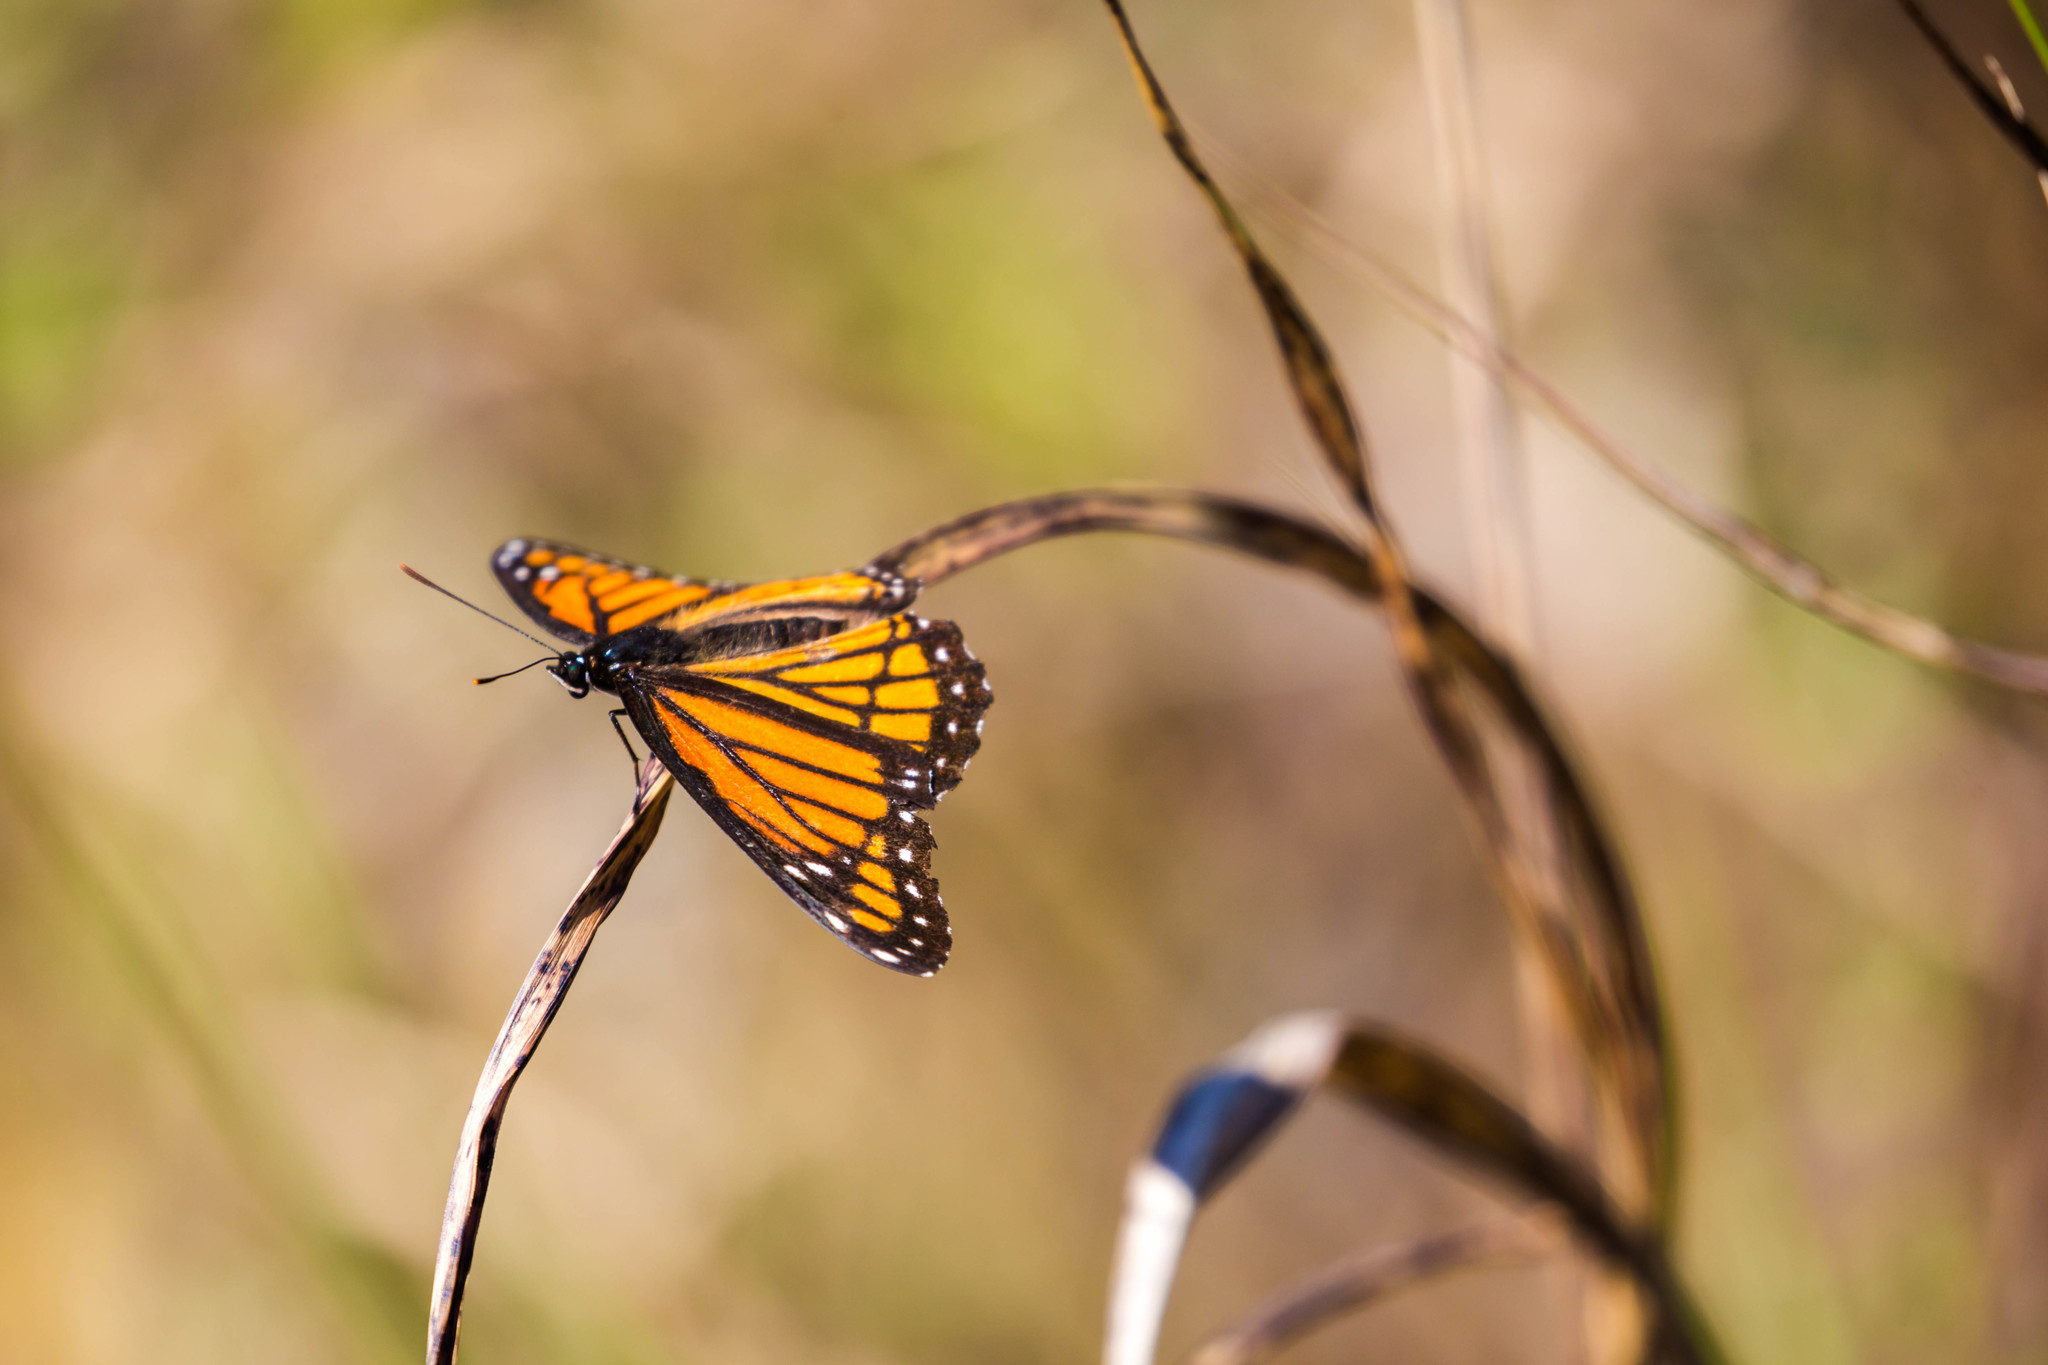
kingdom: Animalia
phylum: Arthropoda
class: Insecta
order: Lepidoptera
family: Nymphalidae
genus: Limenitis
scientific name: Limenitis archippus
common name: Viceroy
